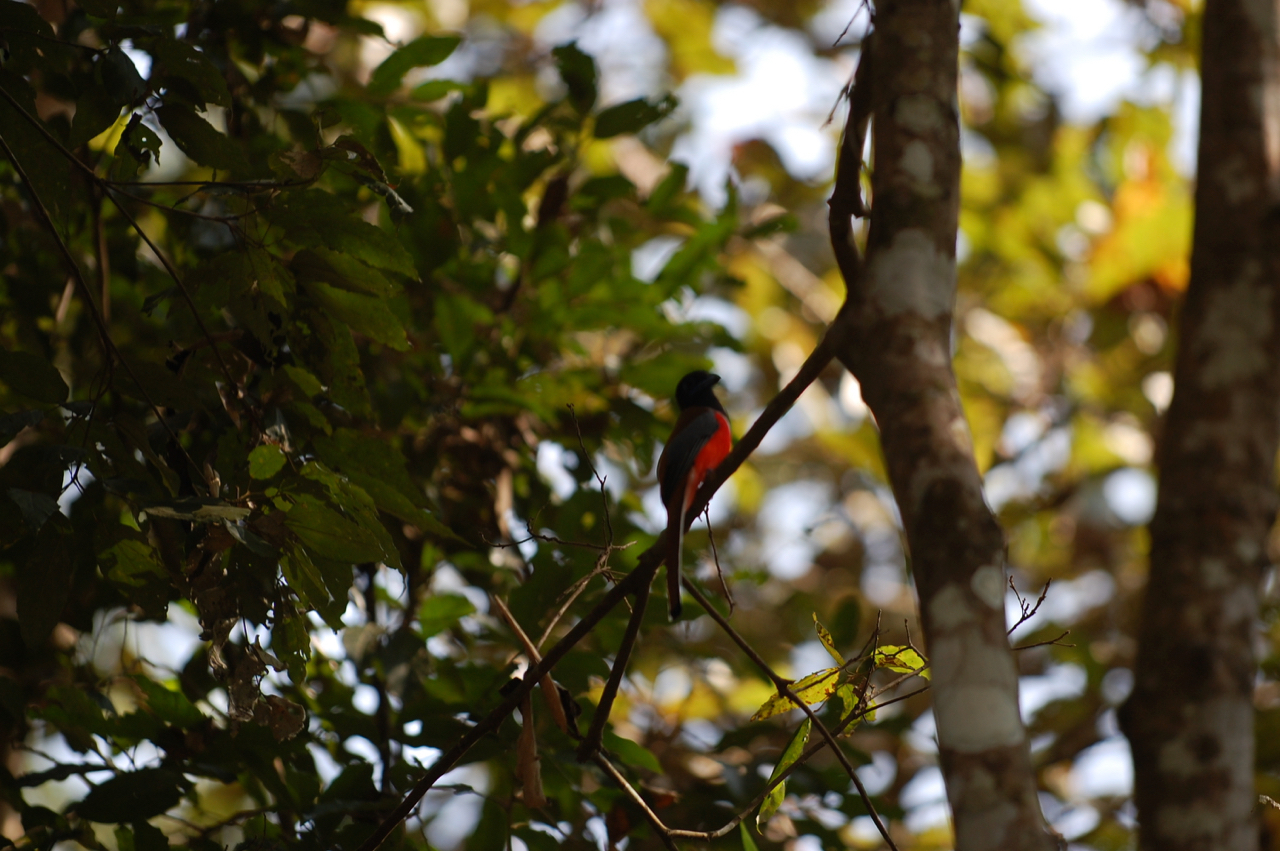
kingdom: Animalia
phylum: Chordata
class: Aves
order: Trogoniformes
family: Trogonidae
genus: Harpactes
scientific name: Harpactes fasciatus
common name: Malabar trogon
